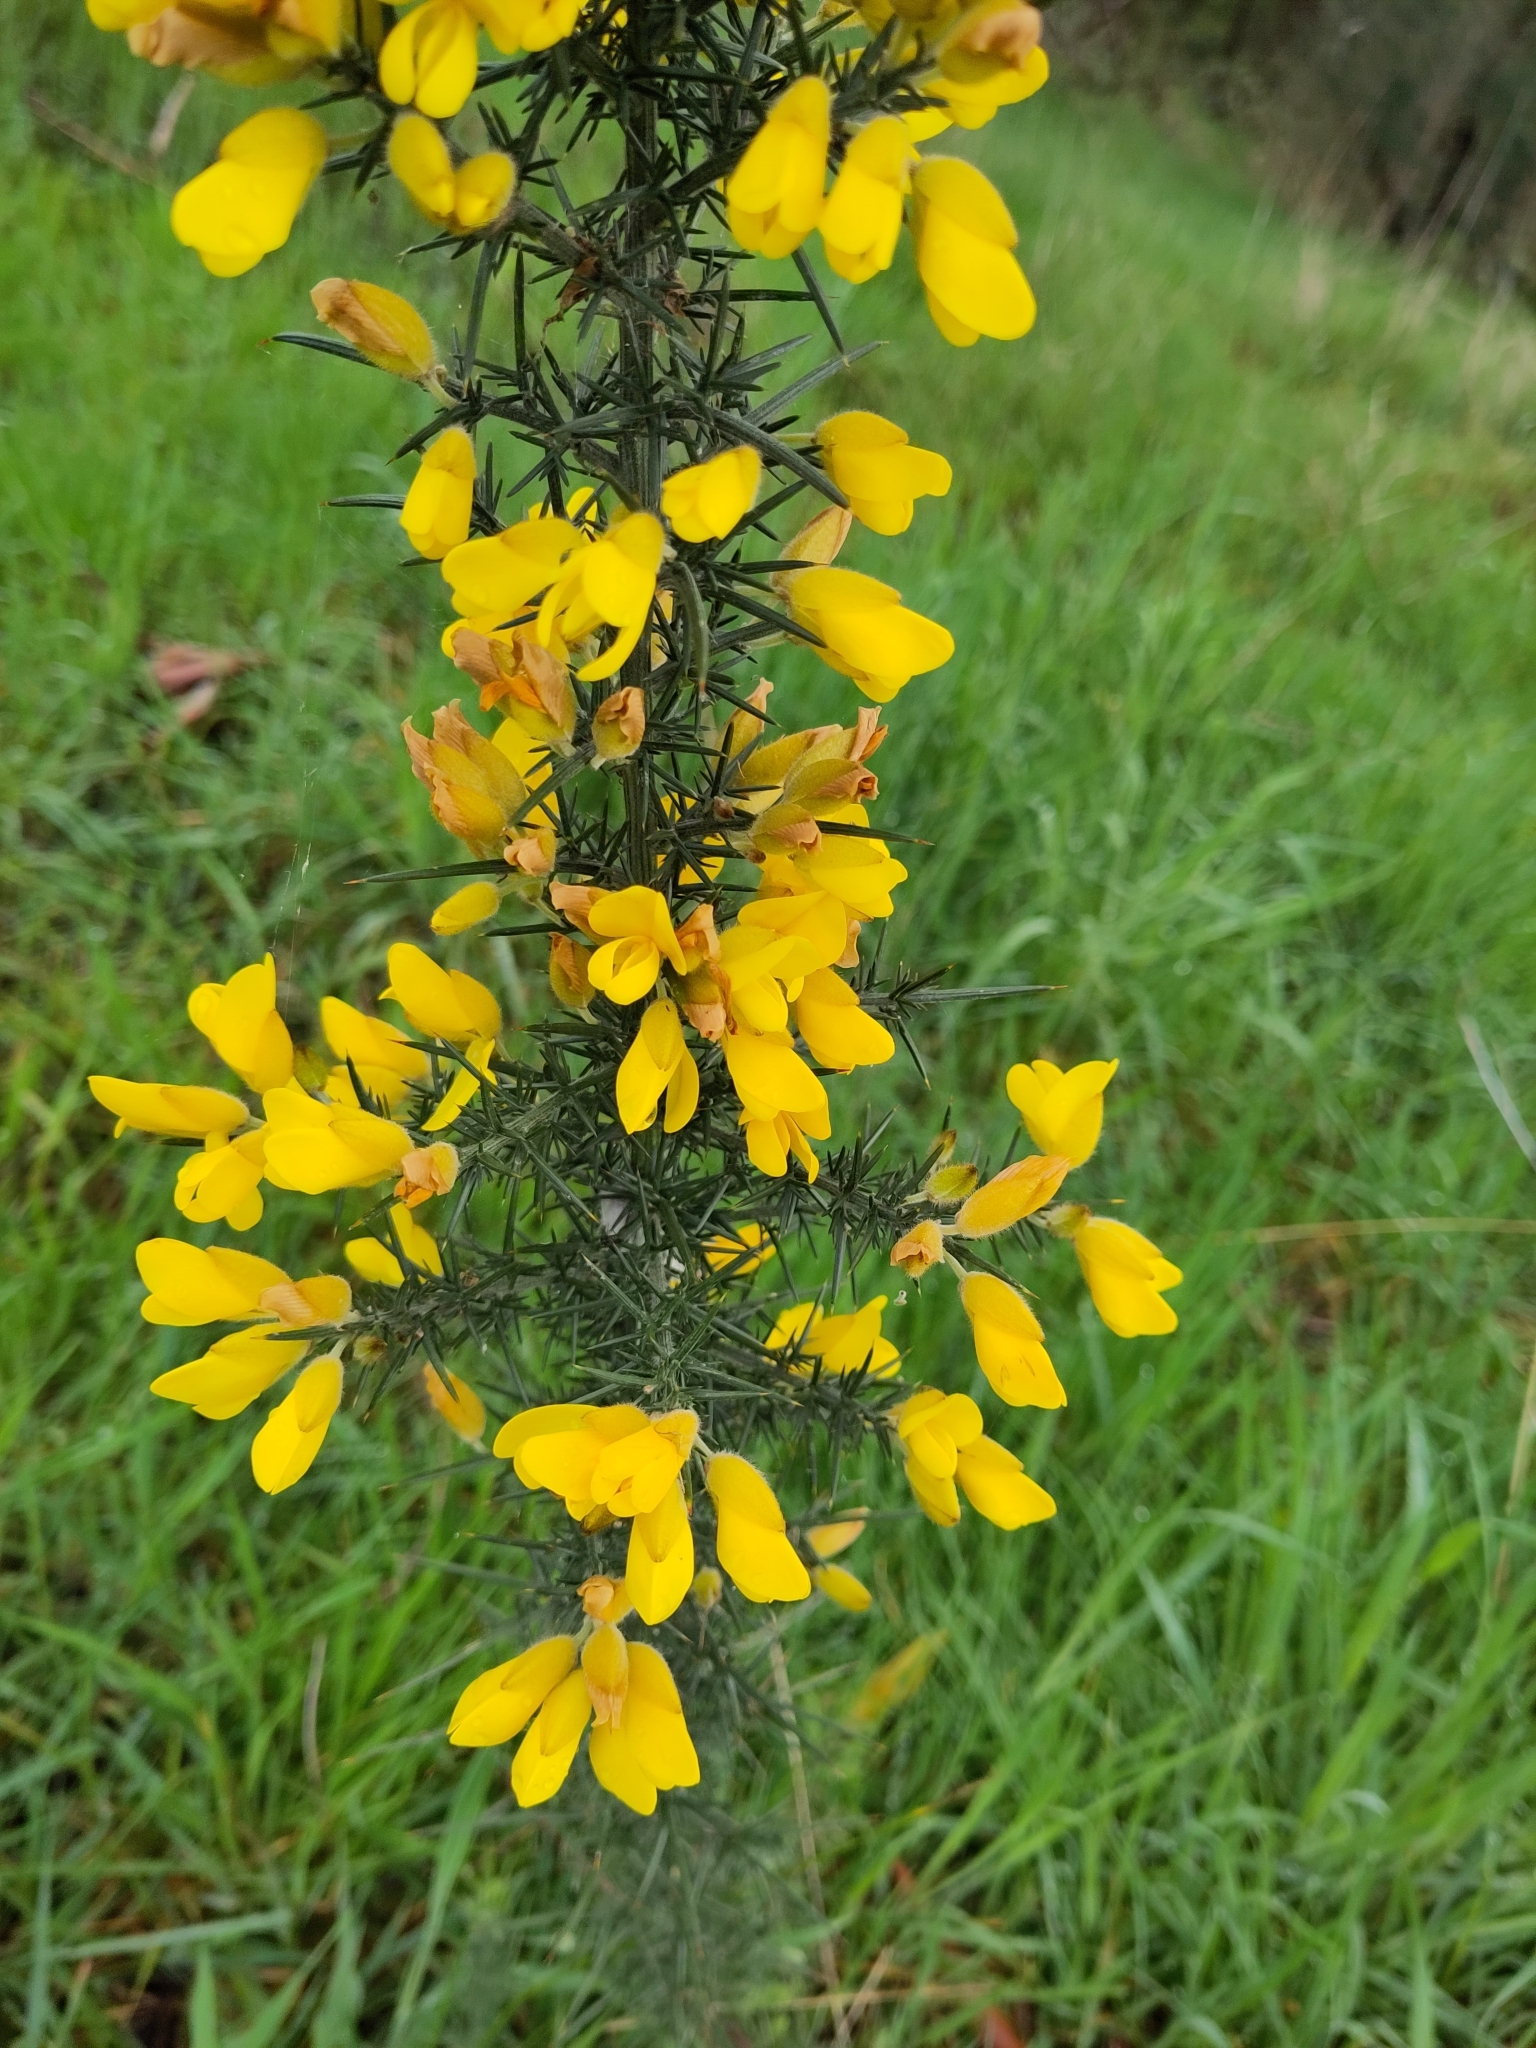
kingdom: Plantae
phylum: Tracheophyta
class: Magnoliopsida
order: Fabales
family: Fabaceae
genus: Ulex
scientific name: Ulex europaeus
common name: Common gorse
